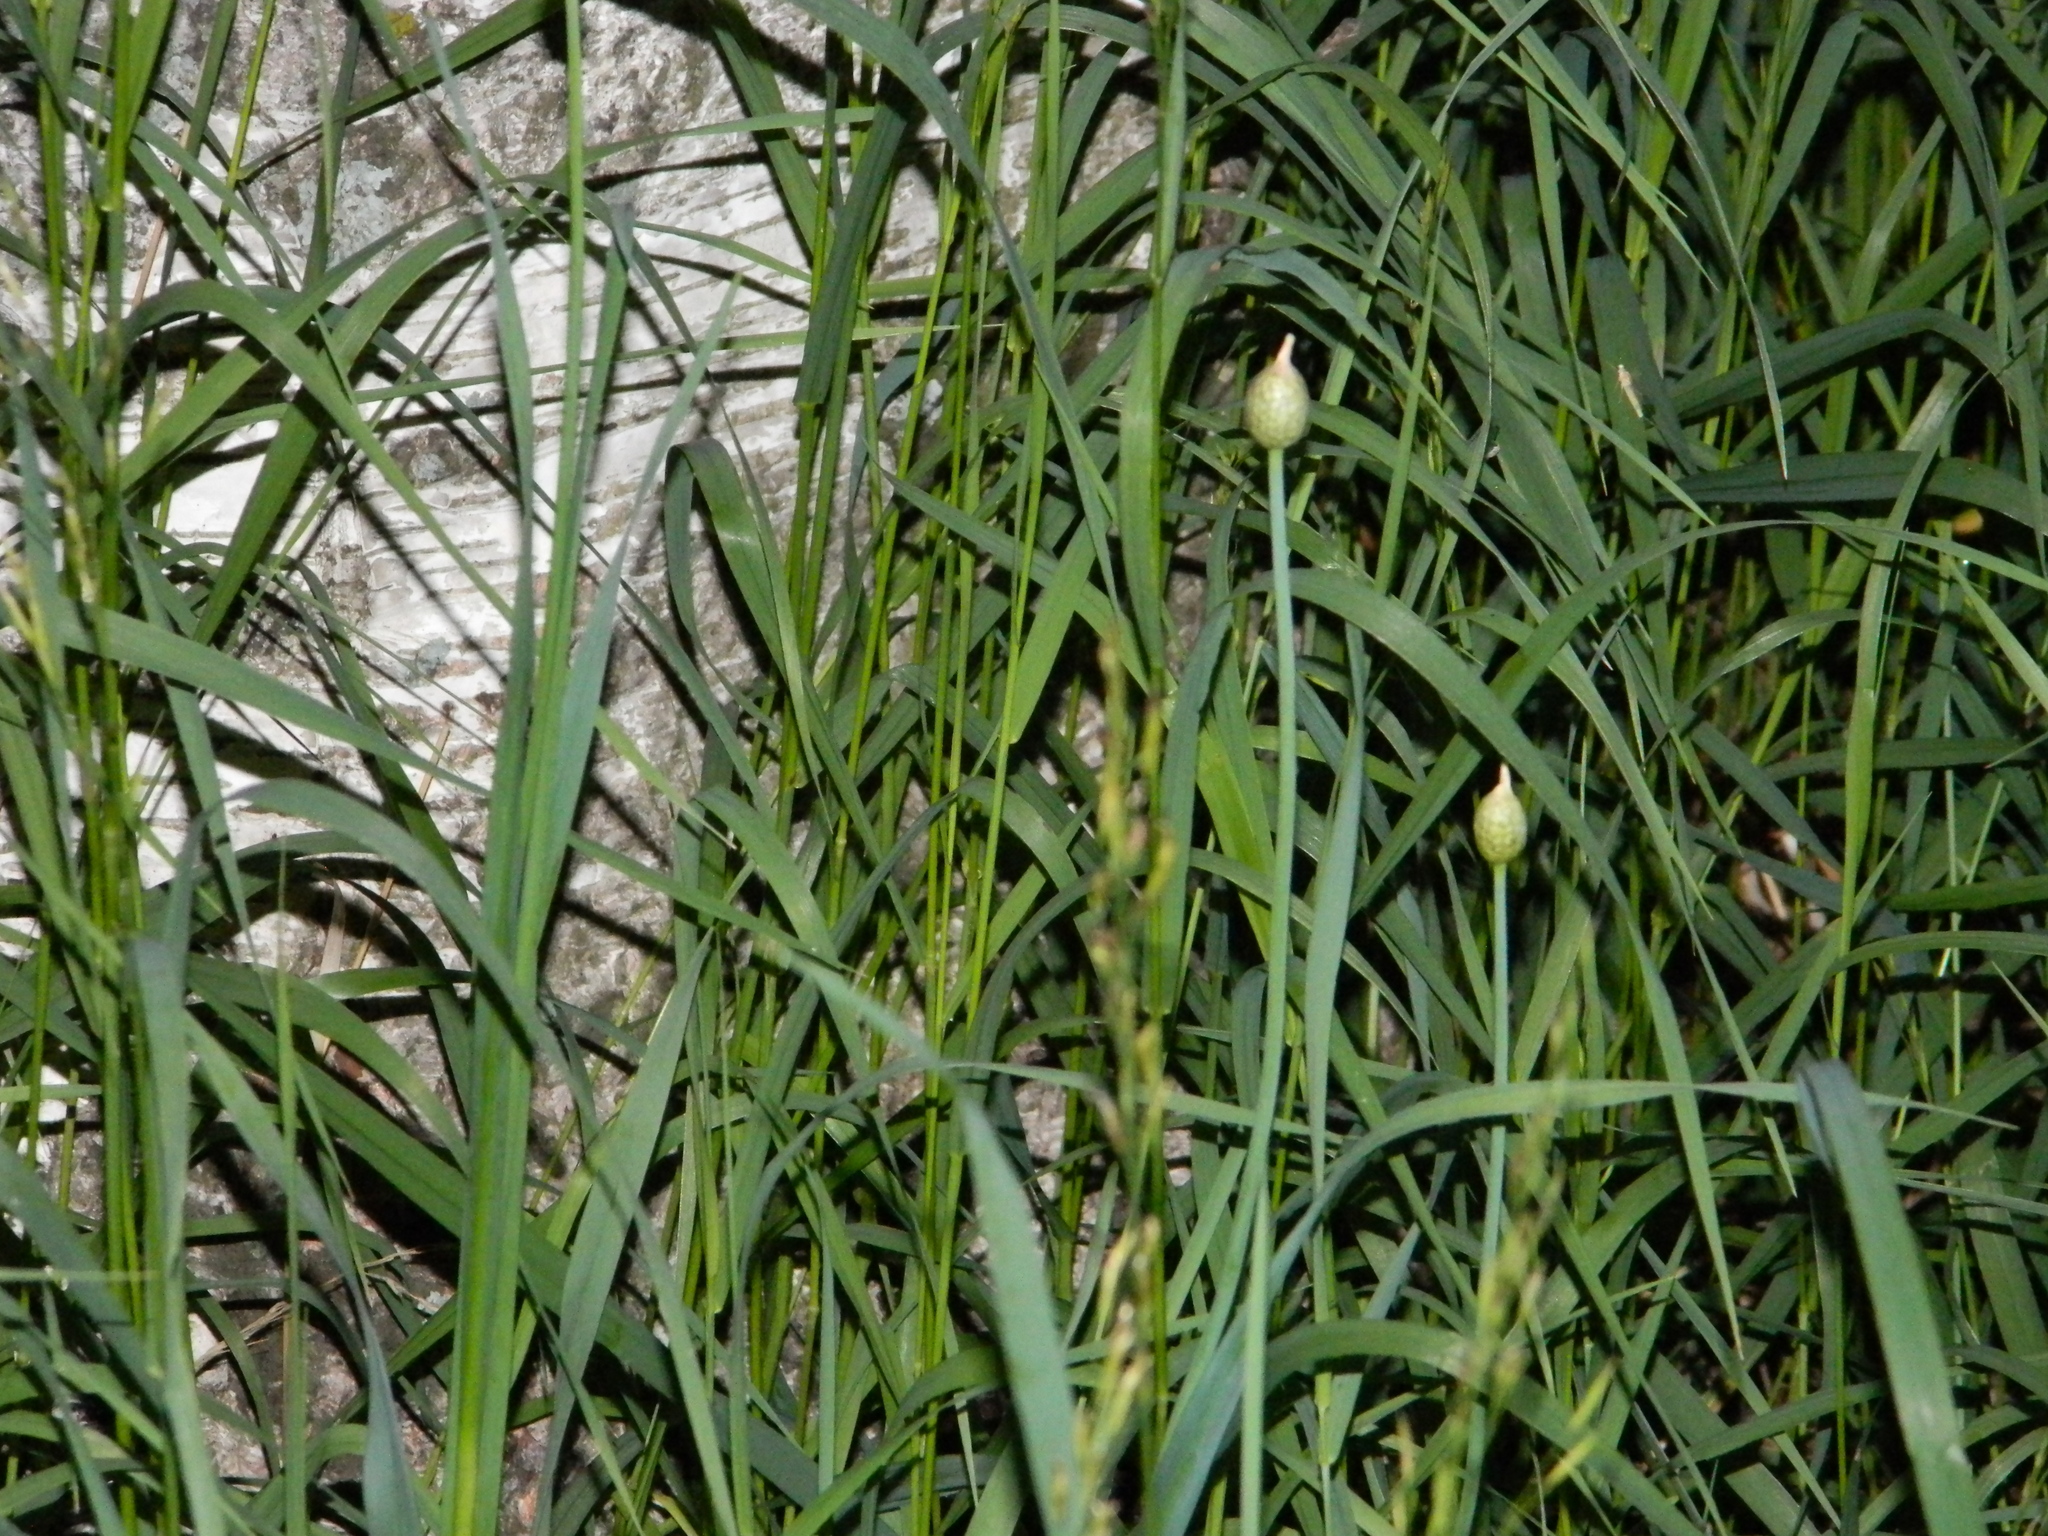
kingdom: Plantae
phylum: Tracheophyta
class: Liliopsida
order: Asparagales
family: Amaryllidaceae
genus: Allium
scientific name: Allium obliquum
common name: Oblique onion
